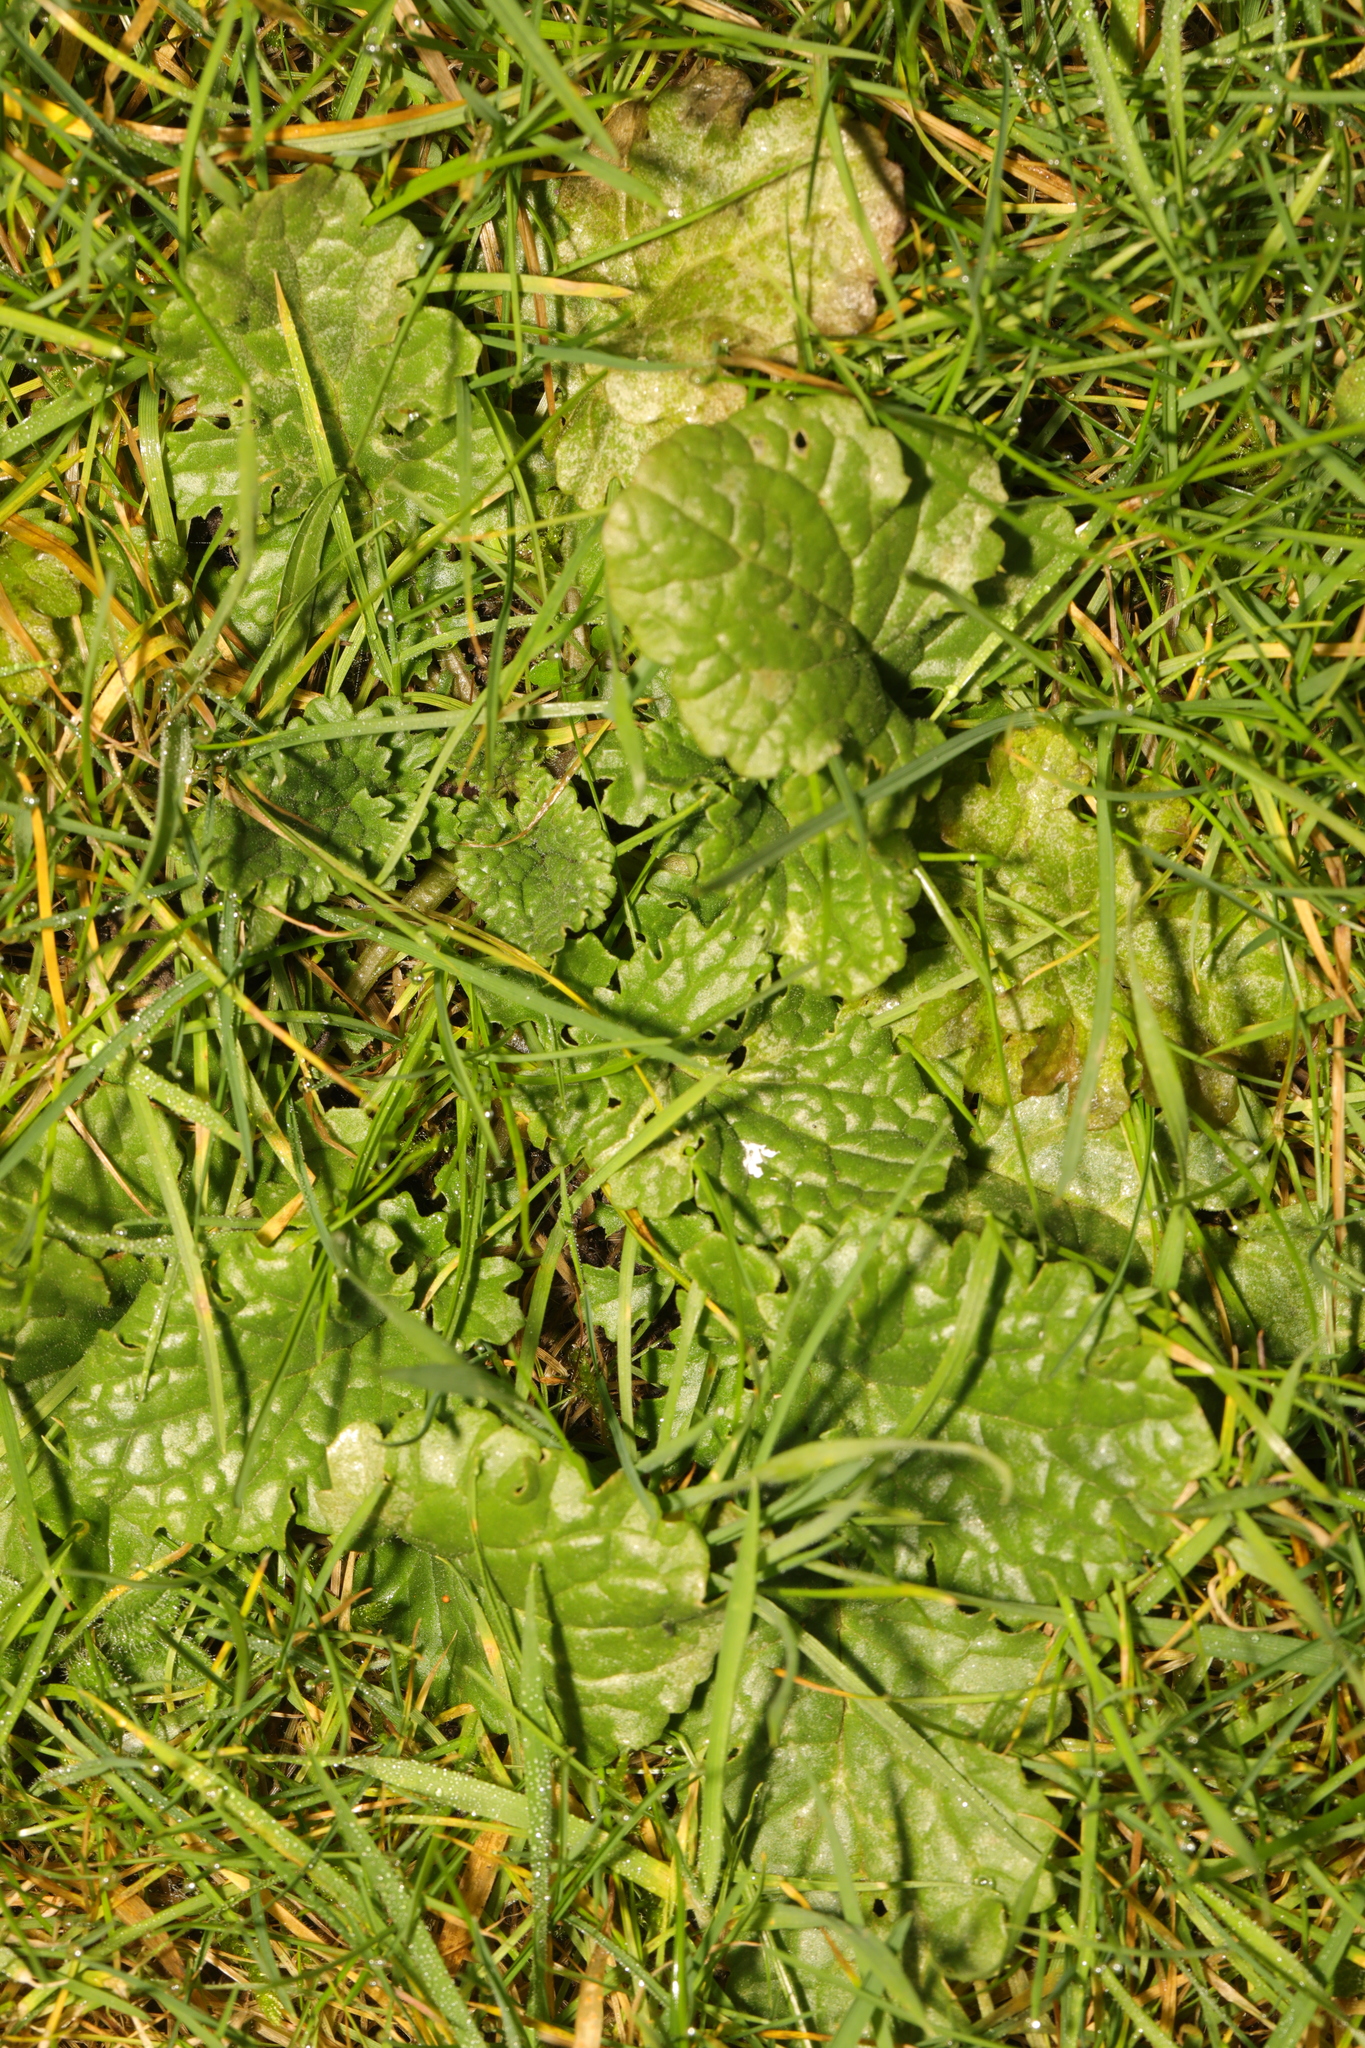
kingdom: Plantae
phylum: Tracheophyta
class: Magnoliopsida
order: Asterales
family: Asteraceae
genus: Jacobaea
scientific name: Jacobaea vulgaris
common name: Stinking willie
